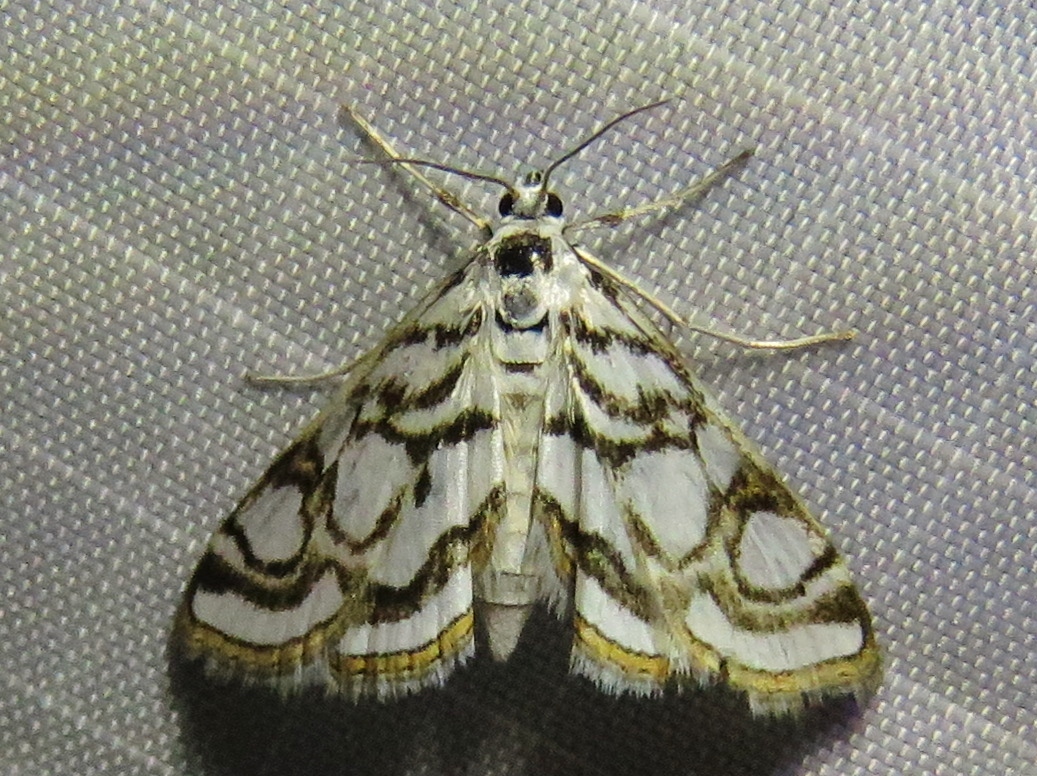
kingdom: Animalia
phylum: Arthropoda
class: Insecta
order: Lepidoptera
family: Crambidae
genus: Nymphula
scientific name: Nymphula nitidulata
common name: Beautiful china mark
